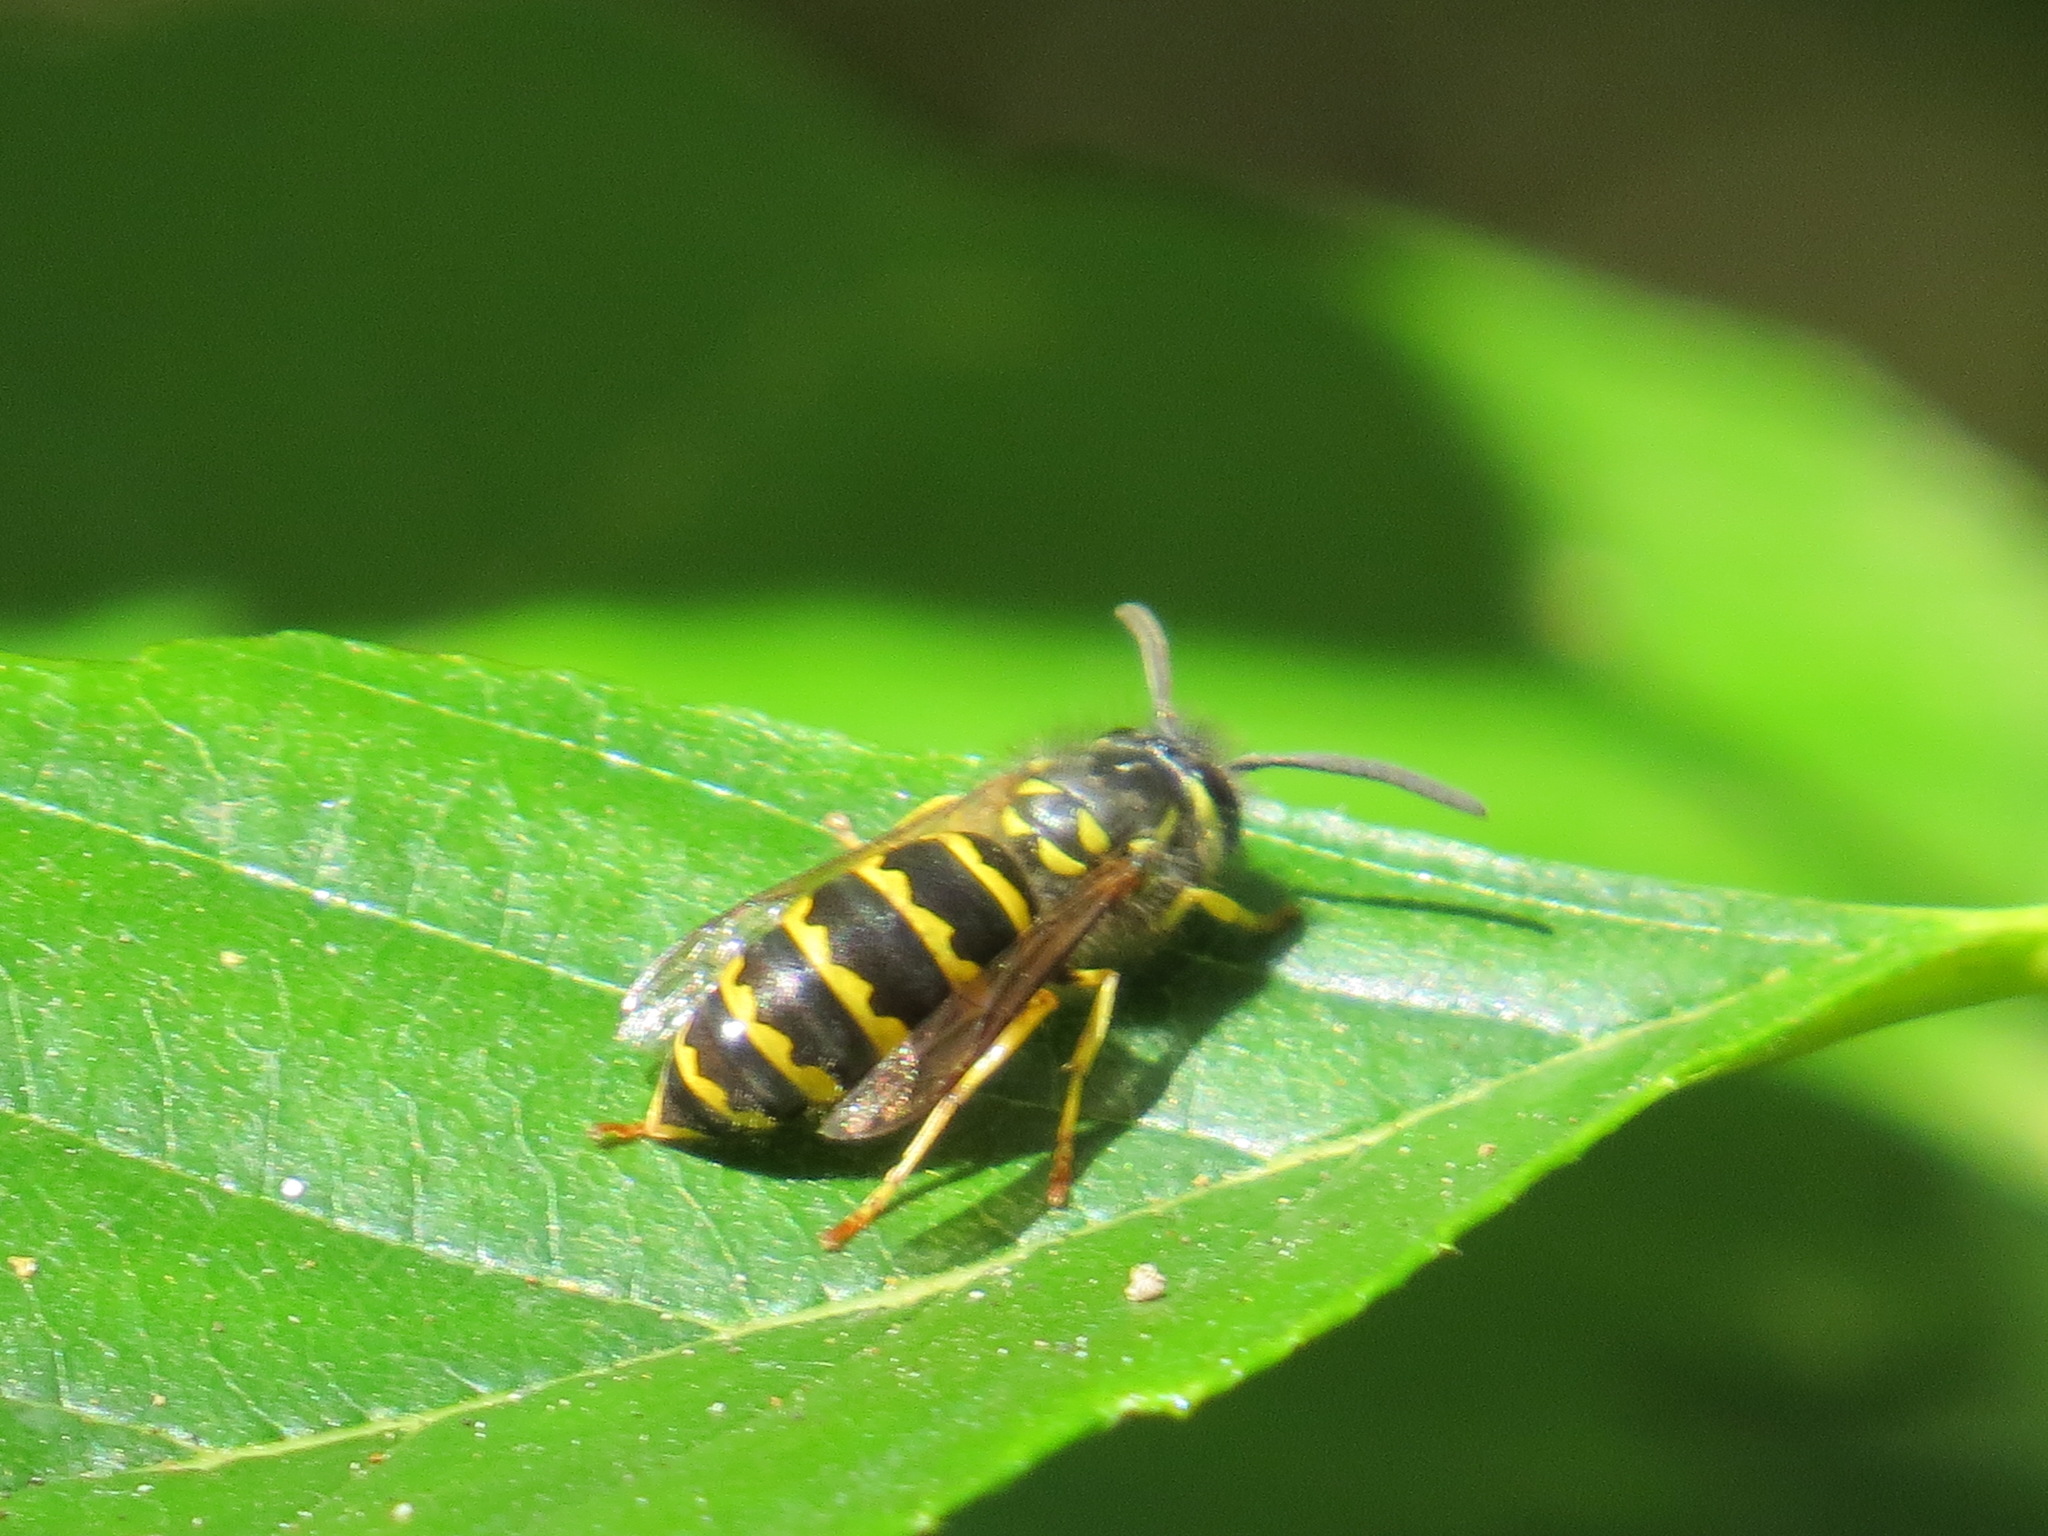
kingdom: Animalia
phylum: Arthropoda
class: Insecta
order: Hymenoptera
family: Vespidae
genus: Vespula
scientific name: Vespula alascensis
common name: Alaska yellowjacket
